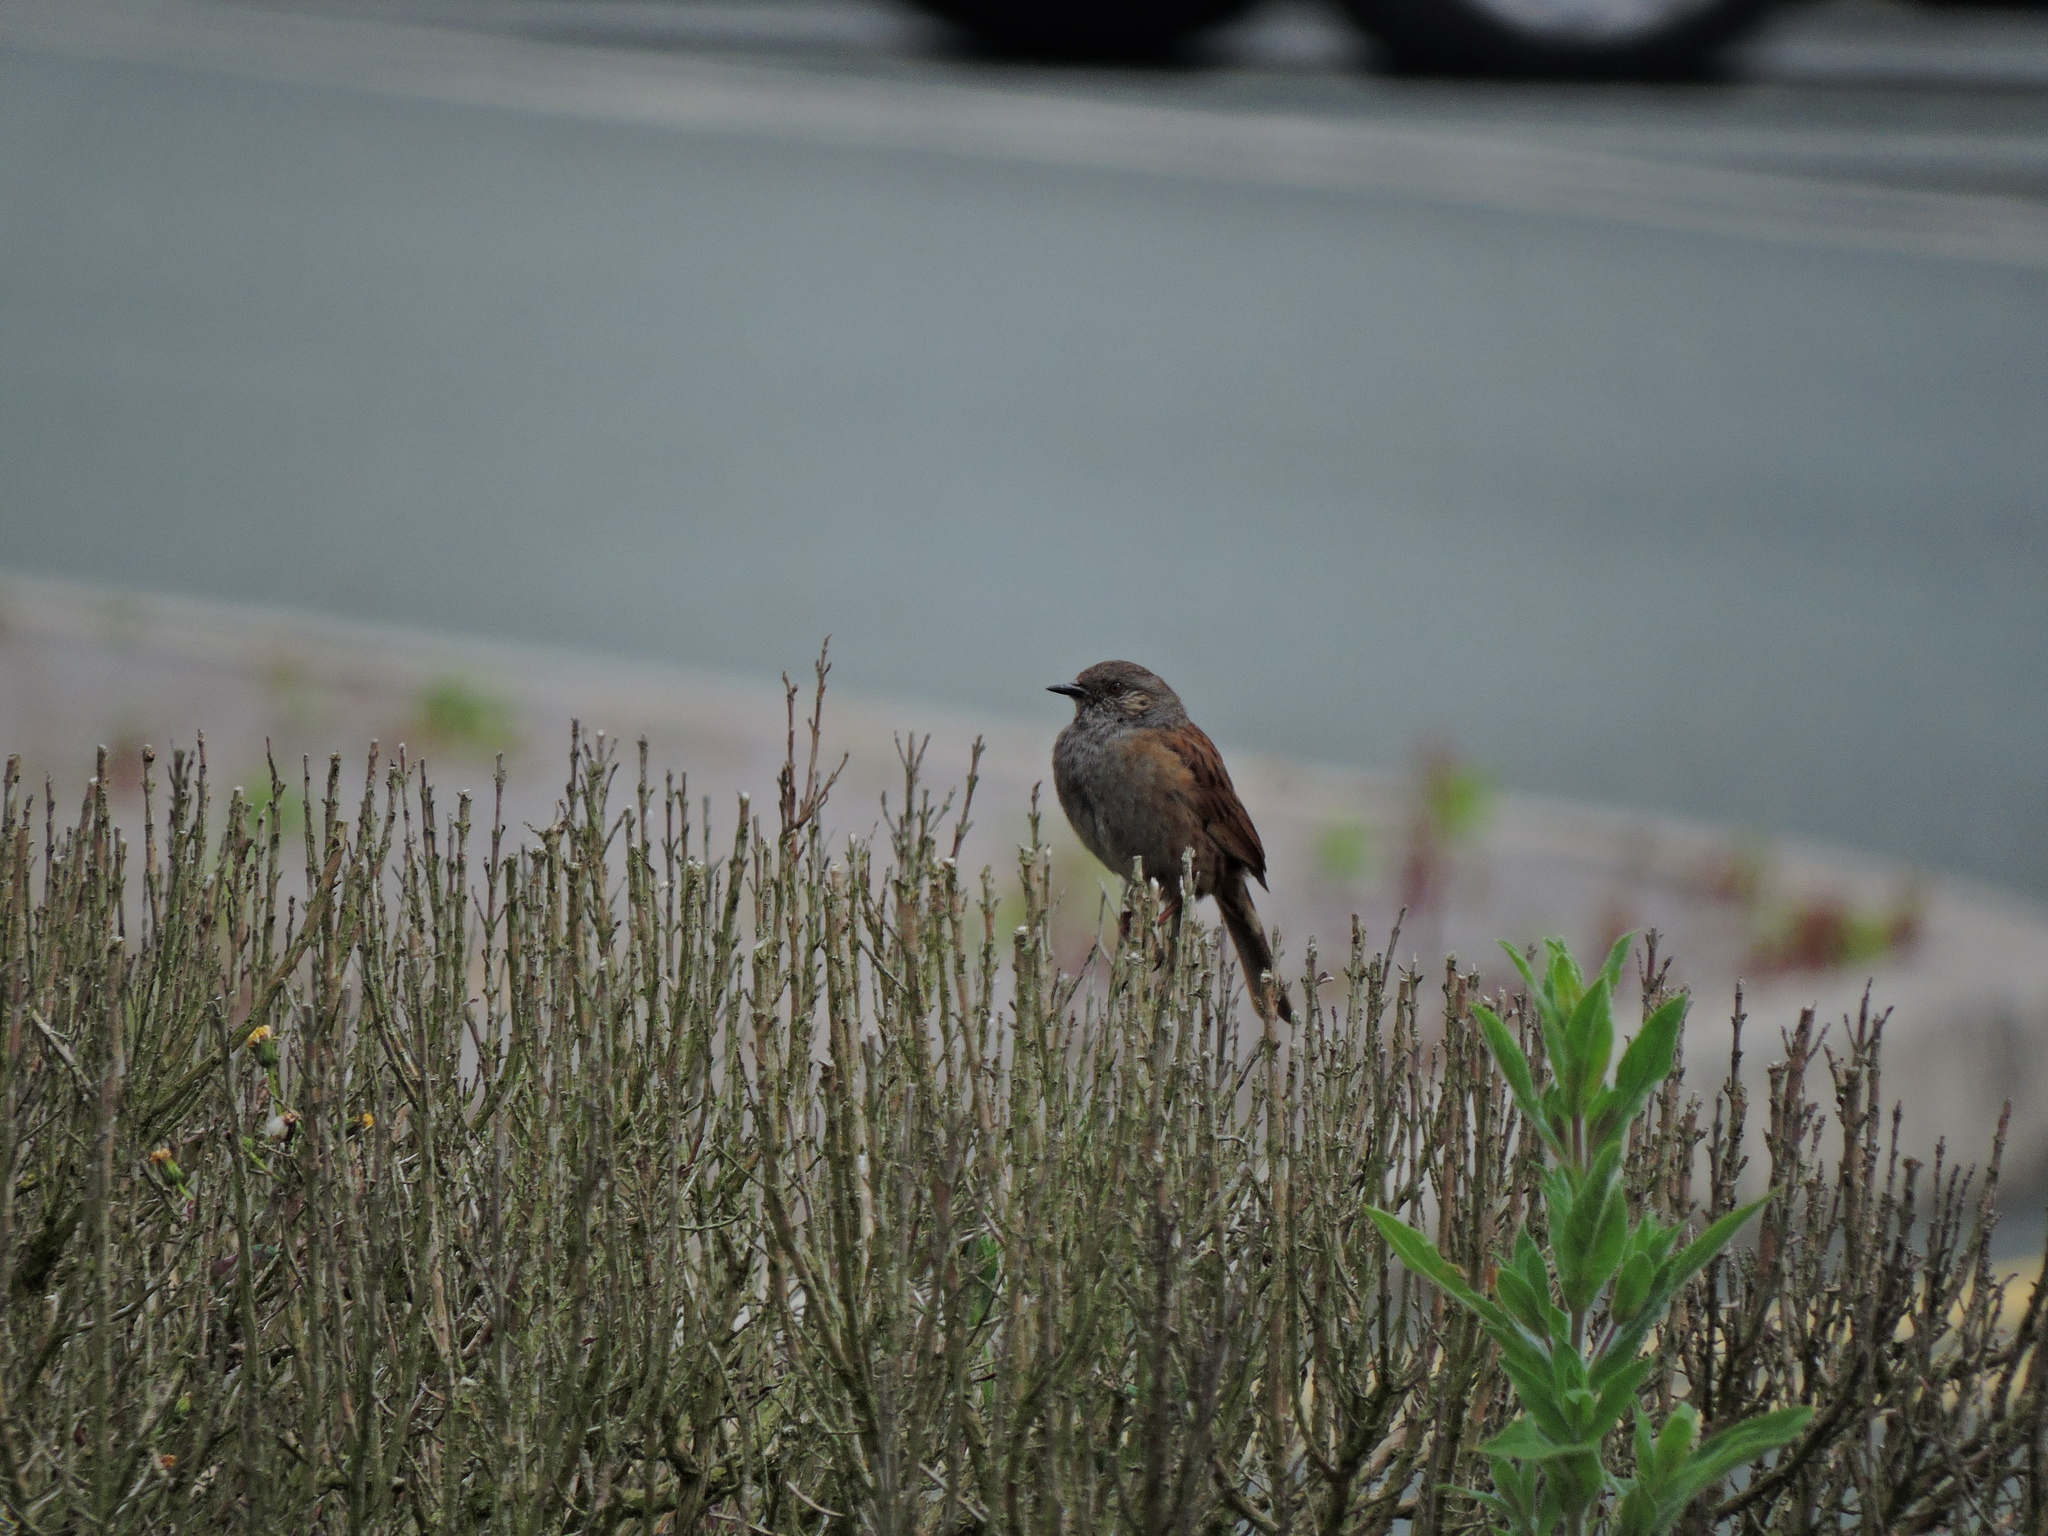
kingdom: Animalia
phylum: Chordata
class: Aves
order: Passeriformes
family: Prunellidae
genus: Prunella
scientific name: Prunella modularis
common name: Dunnock
